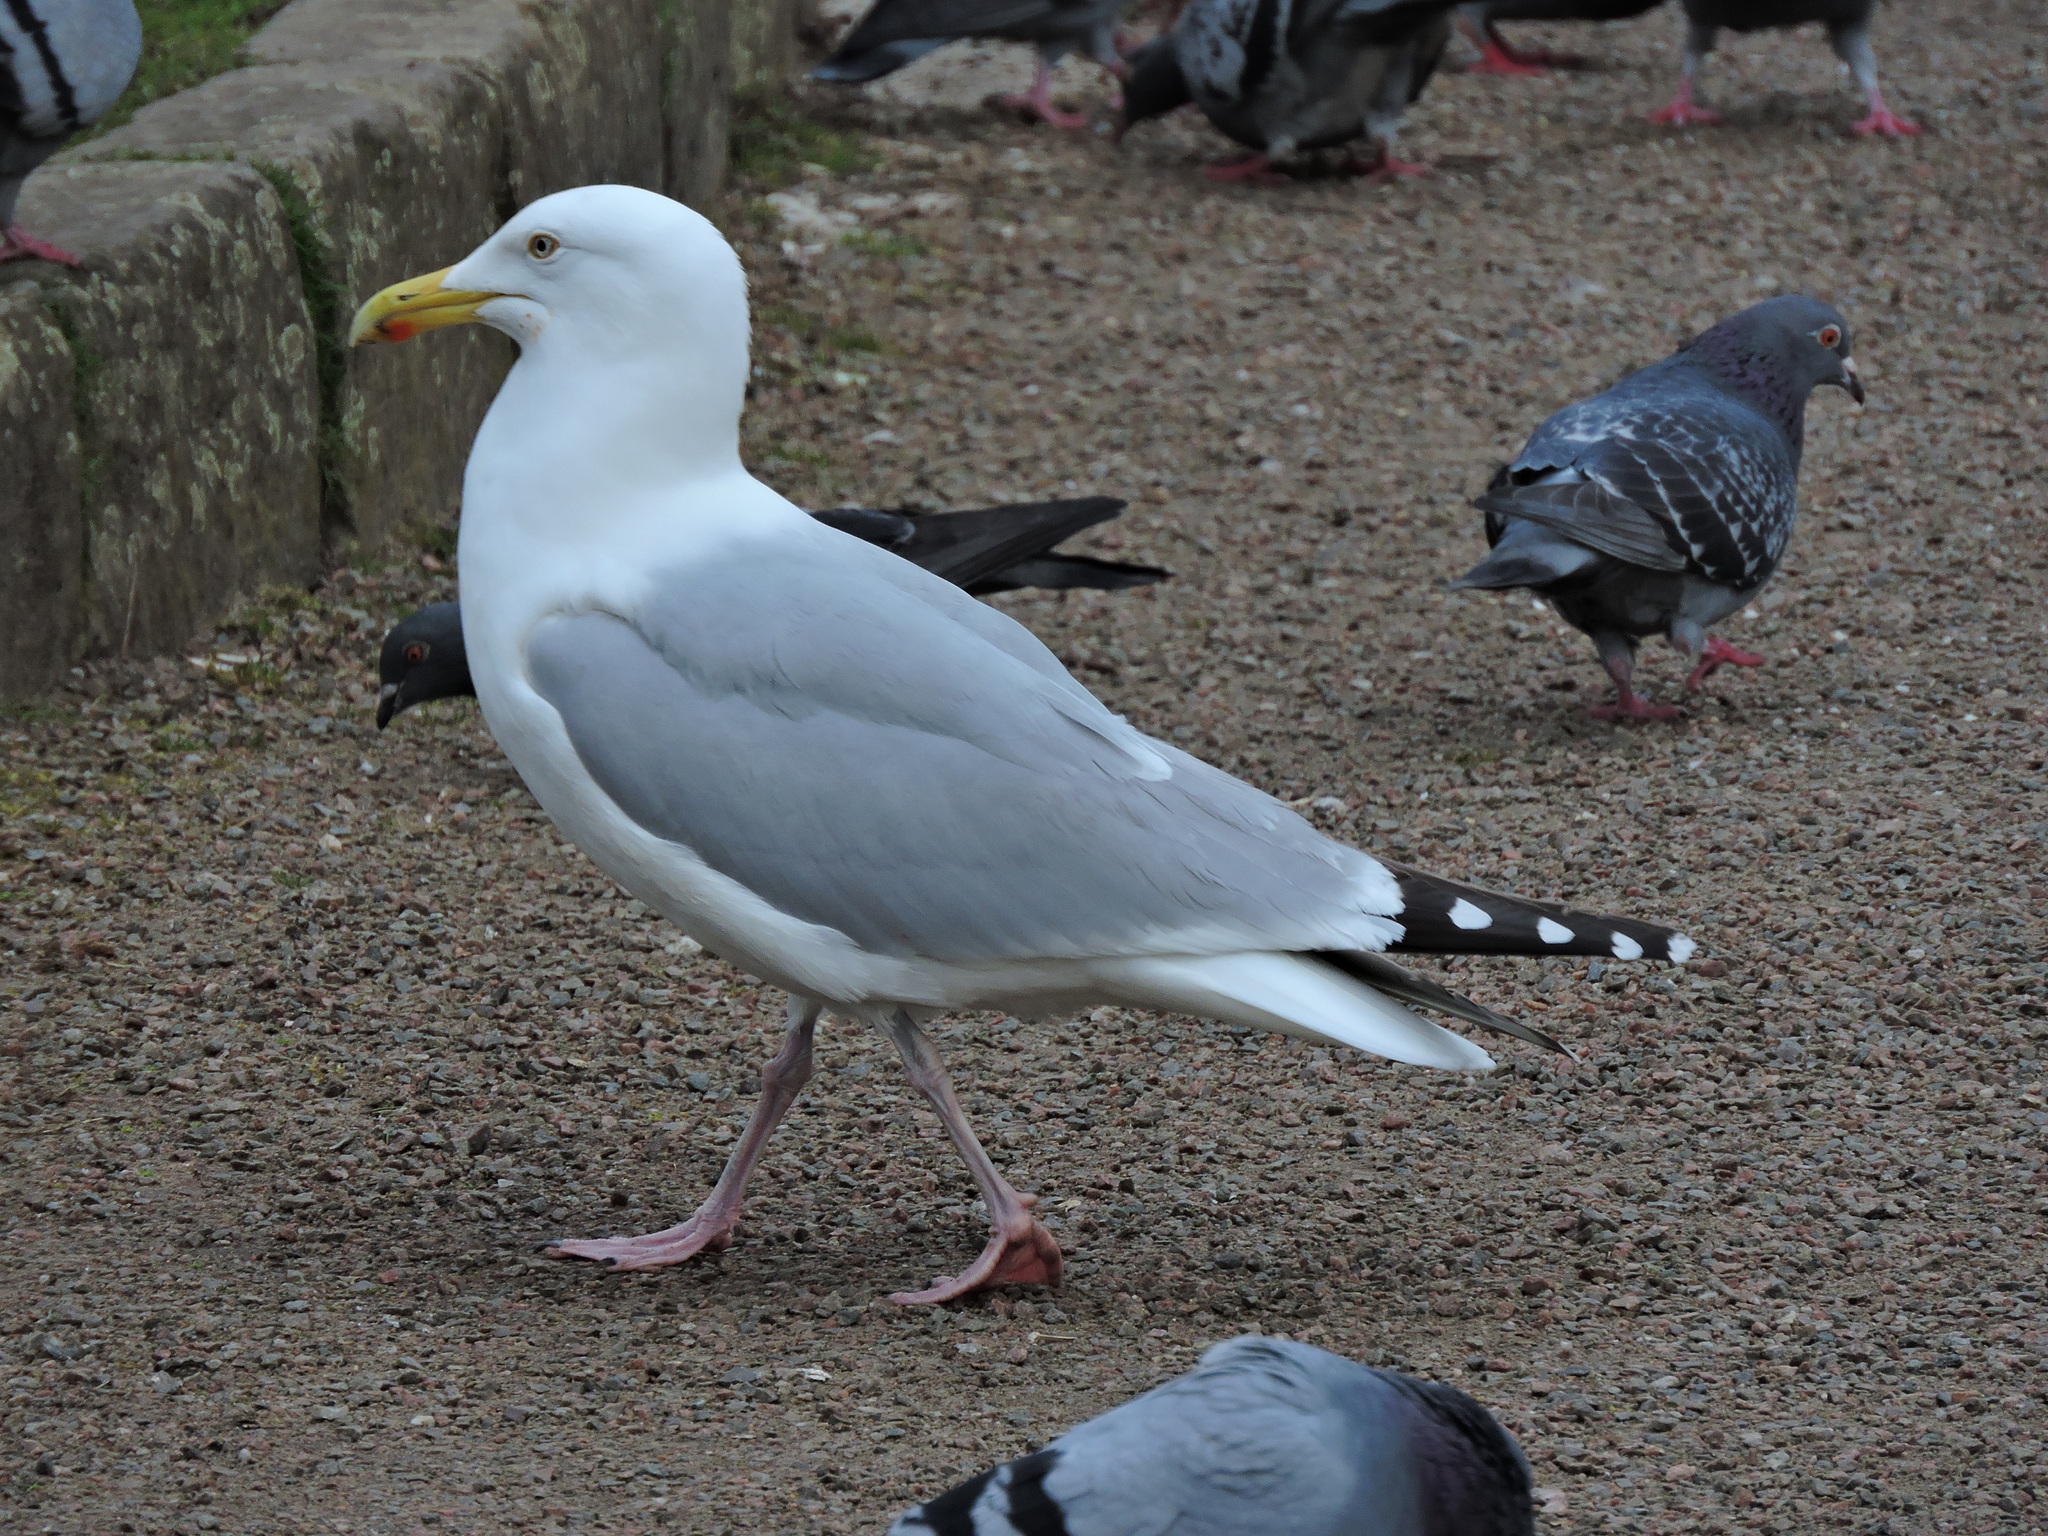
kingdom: Animalia
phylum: Chordata
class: Aves
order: Charadriiformes
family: Laridae
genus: Larus
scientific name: Larus argentatus
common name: Herring gull
